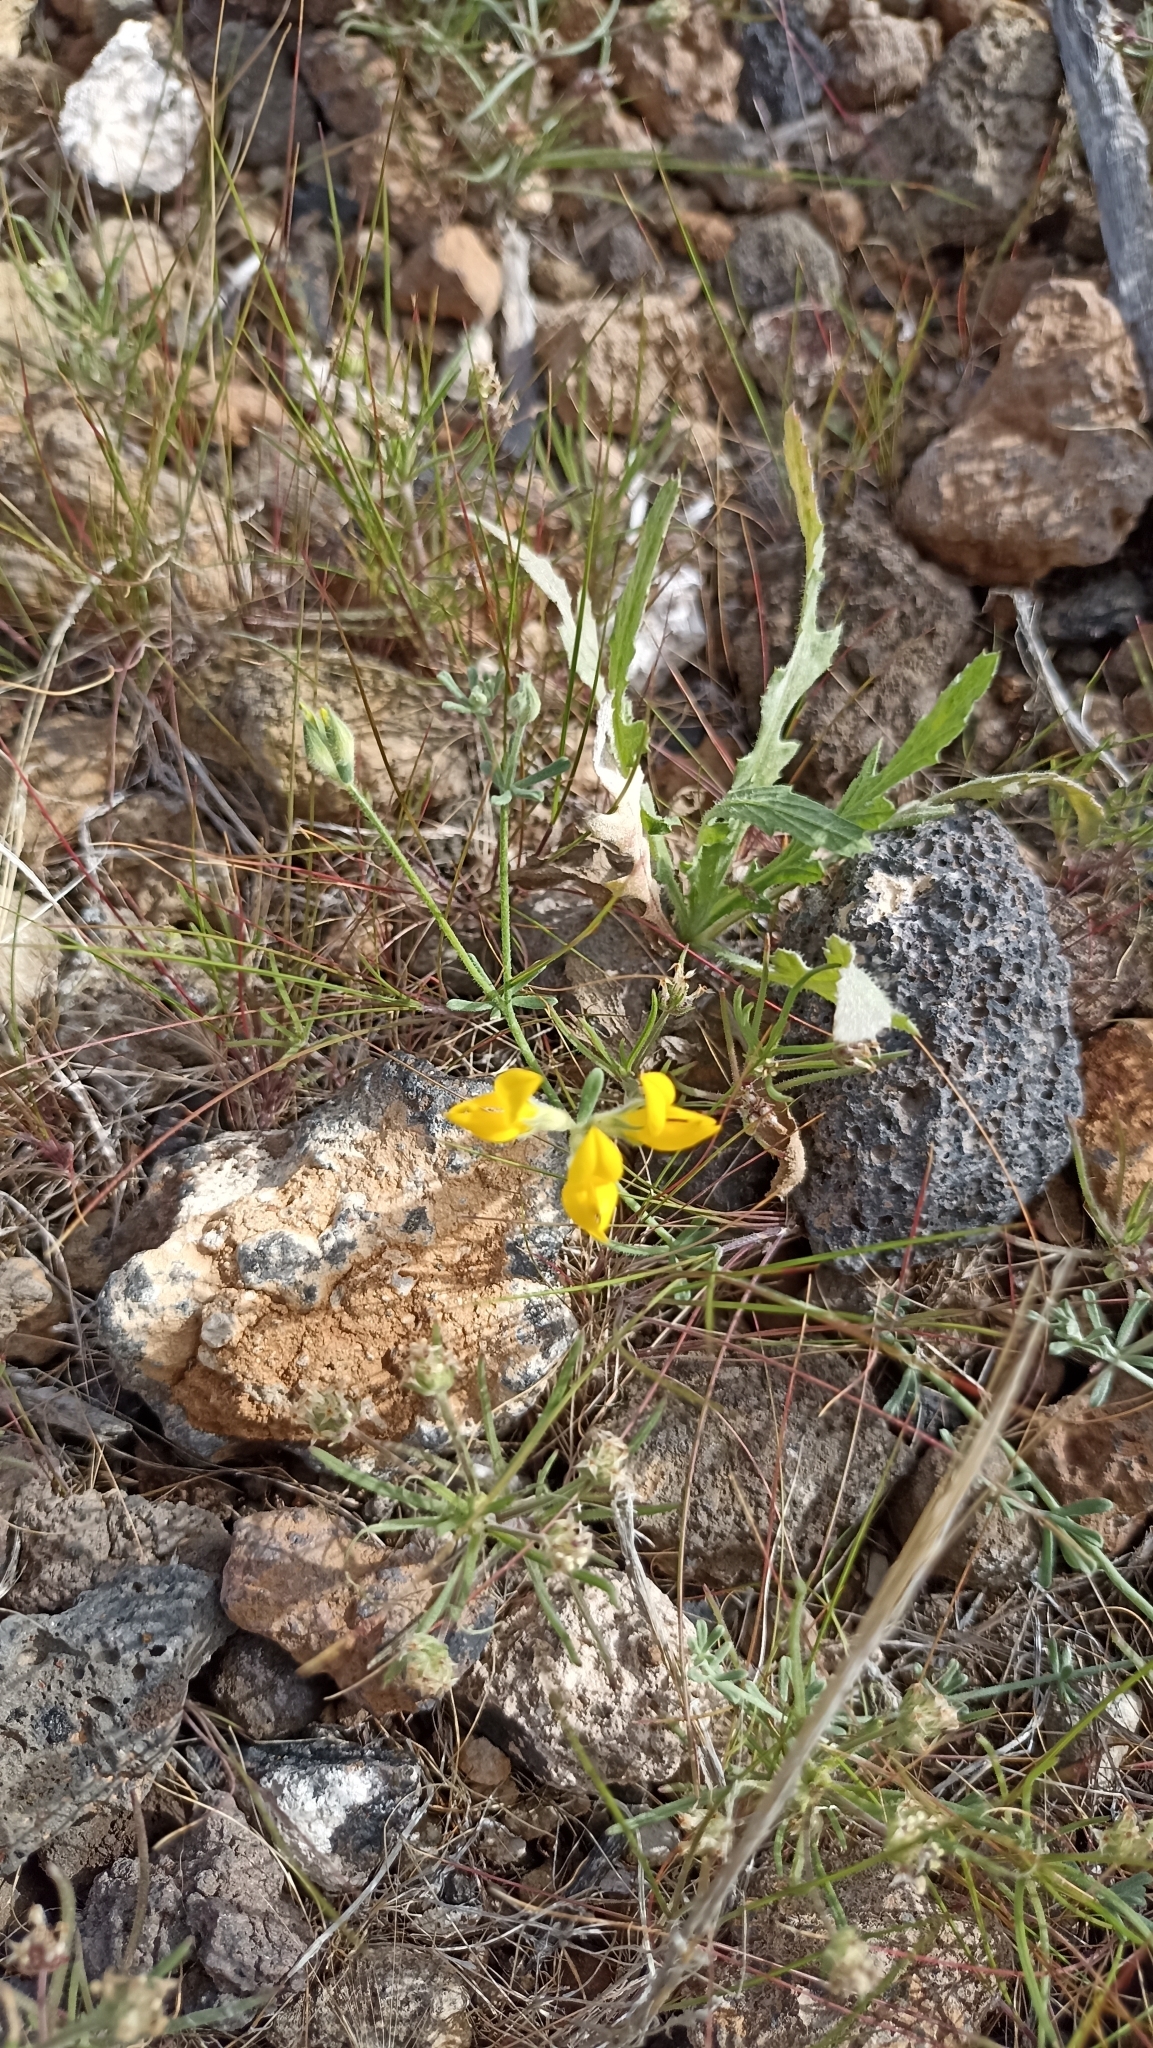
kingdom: Plantae
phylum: Tracheophyta
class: Magnoliopsida
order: Fabales
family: Fabaceae
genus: Lotus
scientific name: Lotus sessilifolius
